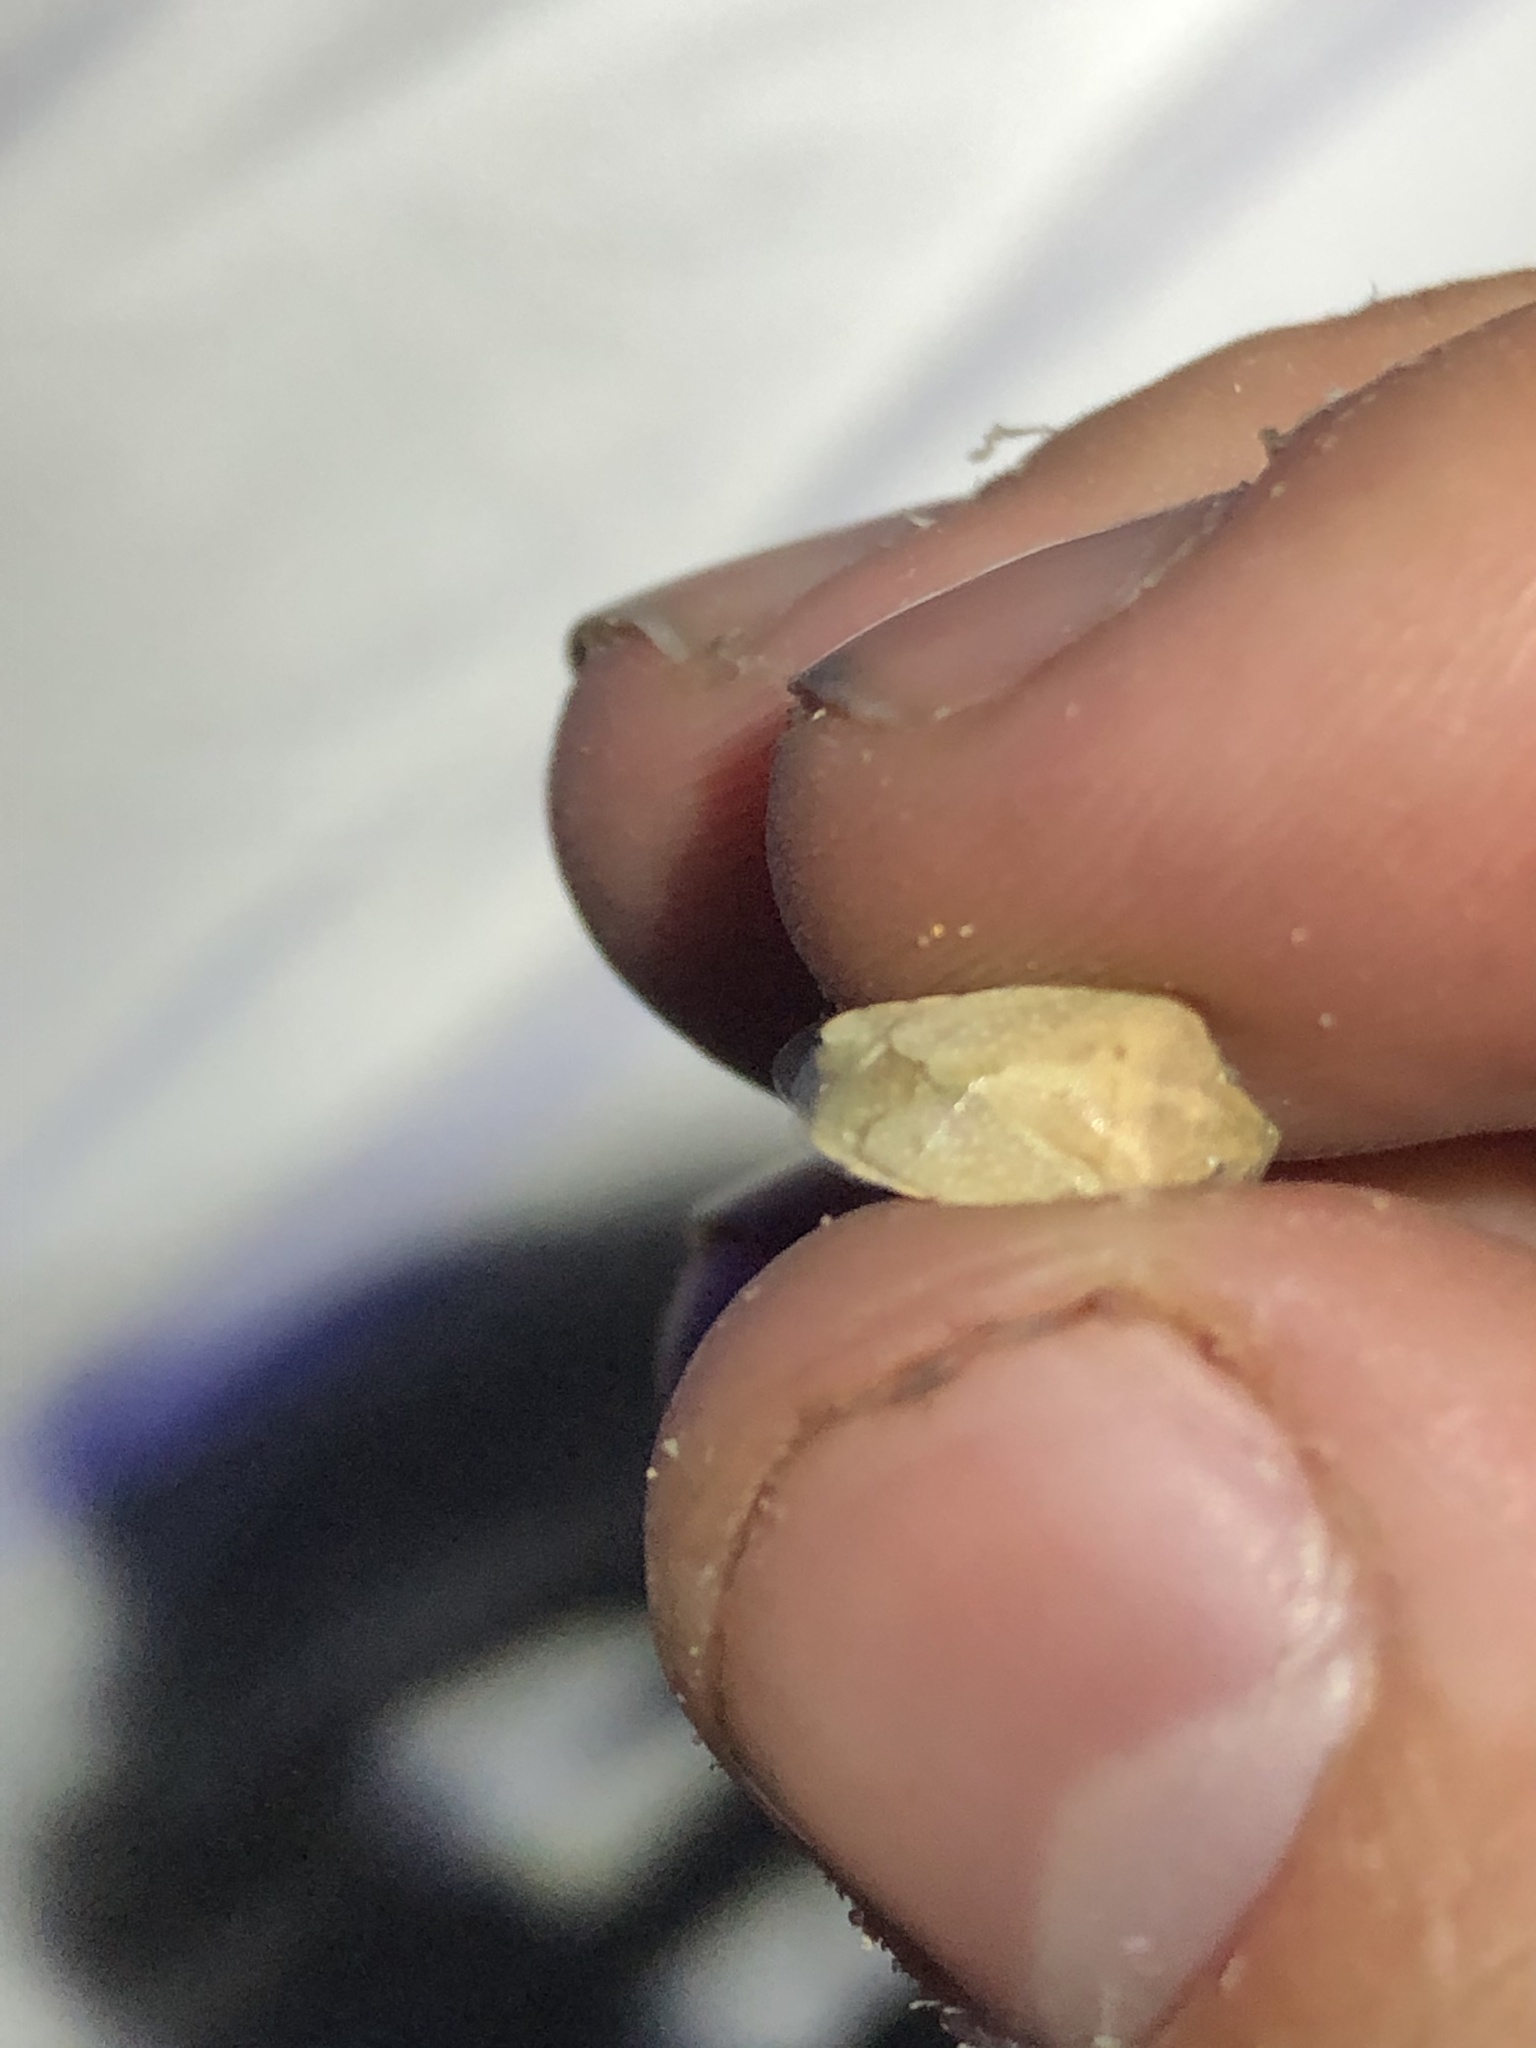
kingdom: Animalia
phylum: Arthropoda
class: Insecta
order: Hemiptera
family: Pentatomidae
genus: Thyanta
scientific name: Thyanta custator
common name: Stink bug
